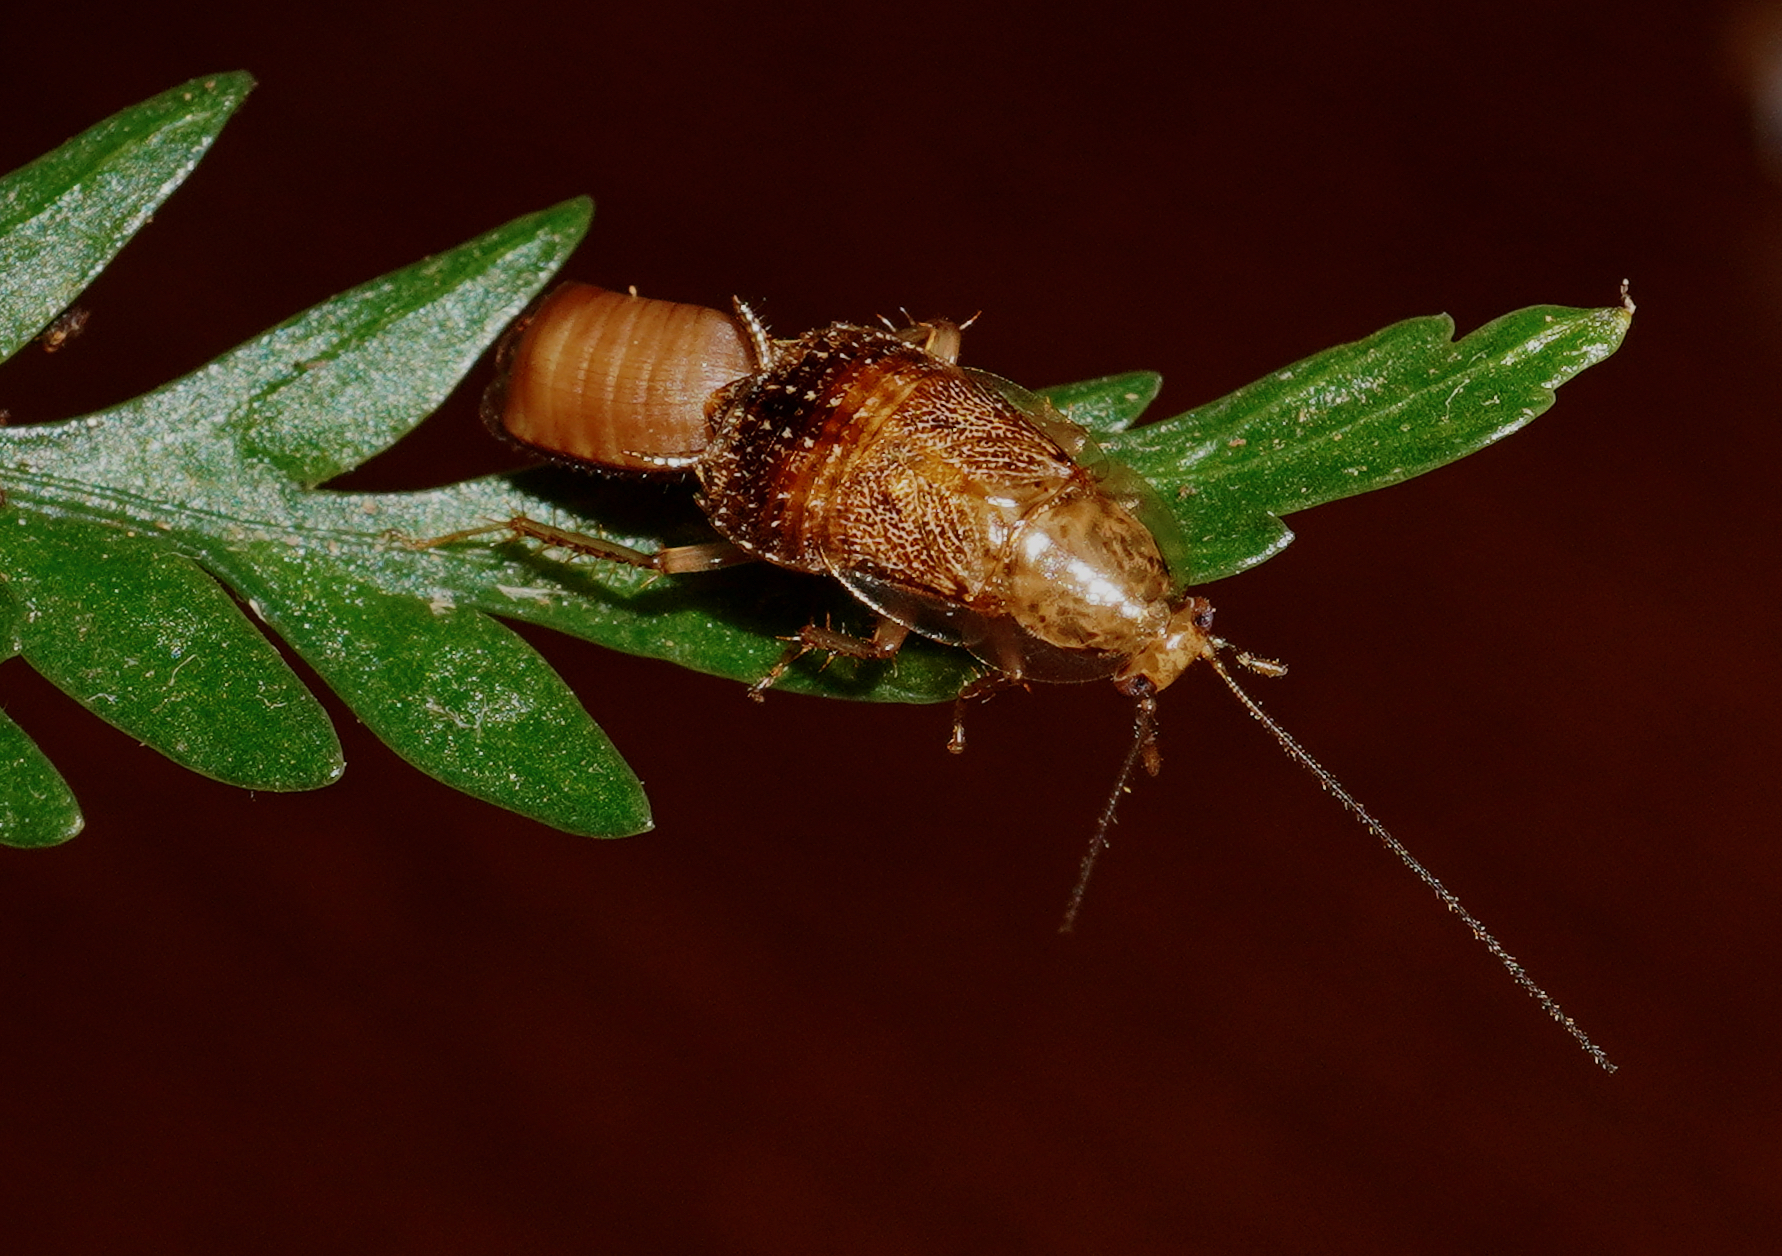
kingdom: Animalia
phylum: Arthropoda
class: Insecta
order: Blattodea
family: Ectobiidae
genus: Parellipsidion
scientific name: Parellipsidion pachycercum
